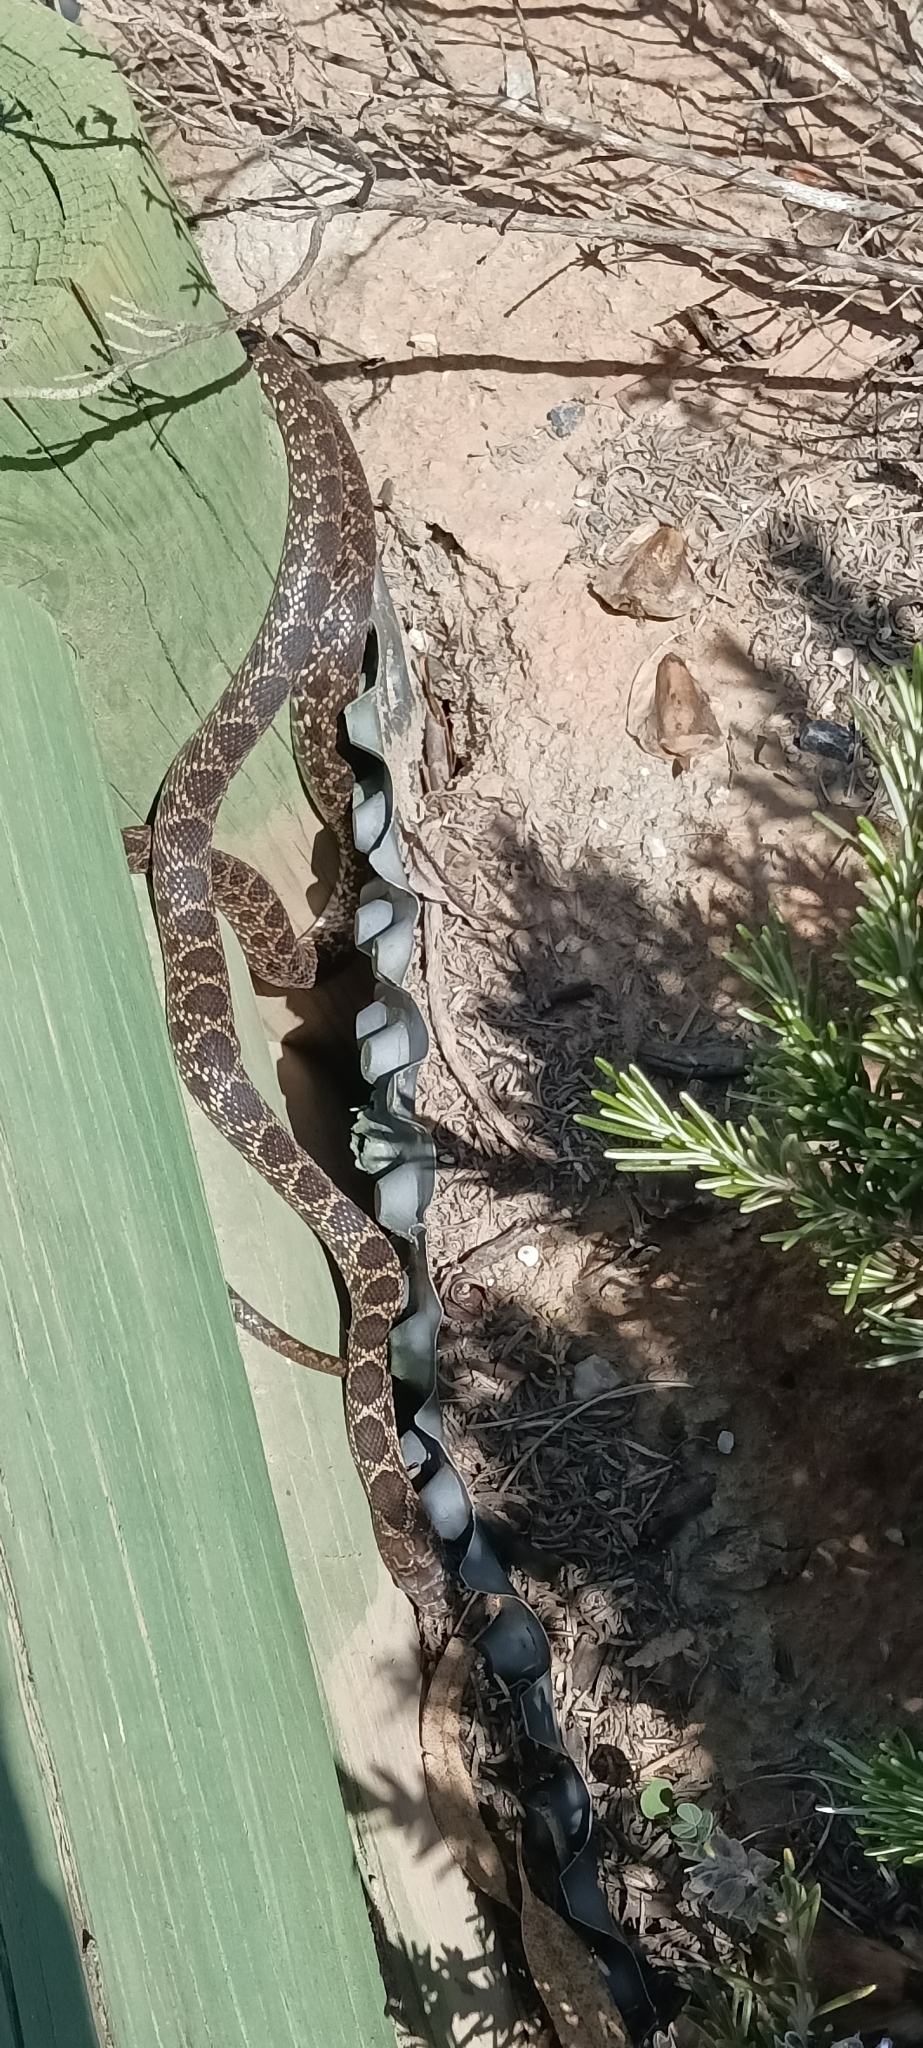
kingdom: Animalia
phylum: Chordata
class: Squamata
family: Colubridae
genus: Hemorrhois
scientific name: Hemorrhois hippocrepis
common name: Horseshoe whip snake
